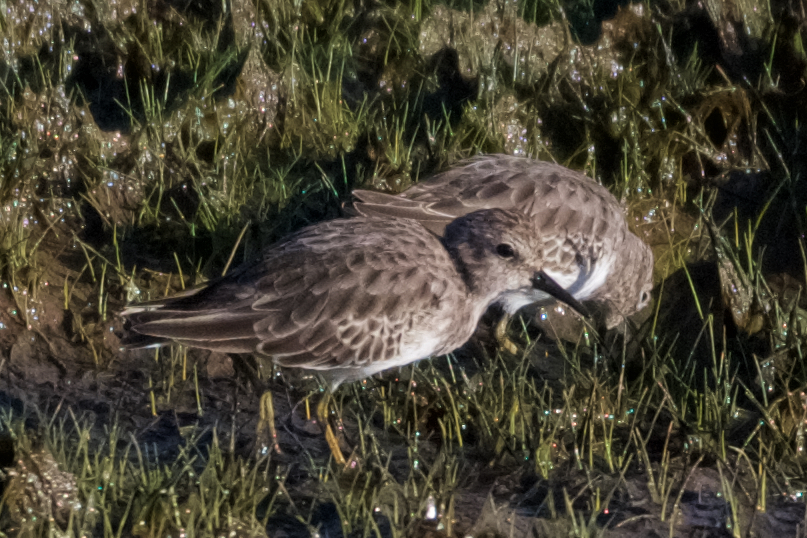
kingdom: Animalia
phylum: Chordata
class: Aves
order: Charadriiformes
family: Scolopacidae
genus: Calidris
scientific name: Calidris minutilla
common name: Least sandpiper
